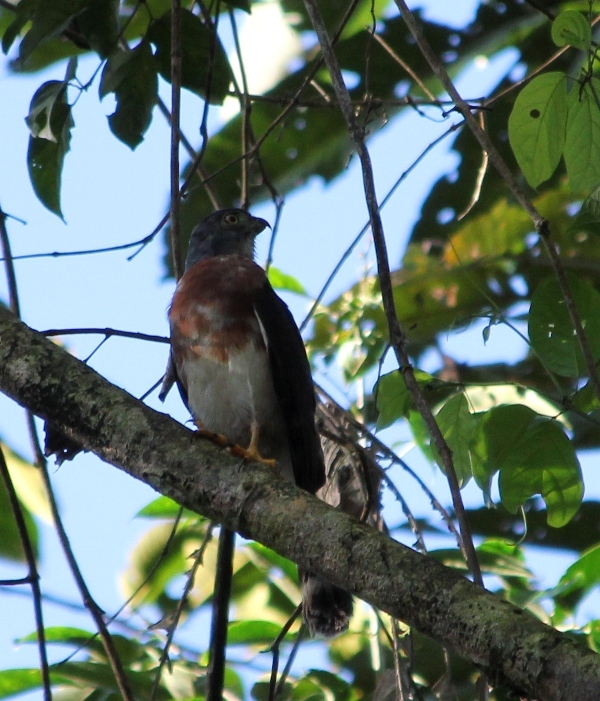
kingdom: Animalia
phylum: Chordata
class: Aves
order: Accipitriformes
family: Accipitridae
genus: Harpagus
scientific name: Harpagus bidentatus
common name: Double-toothed kite
